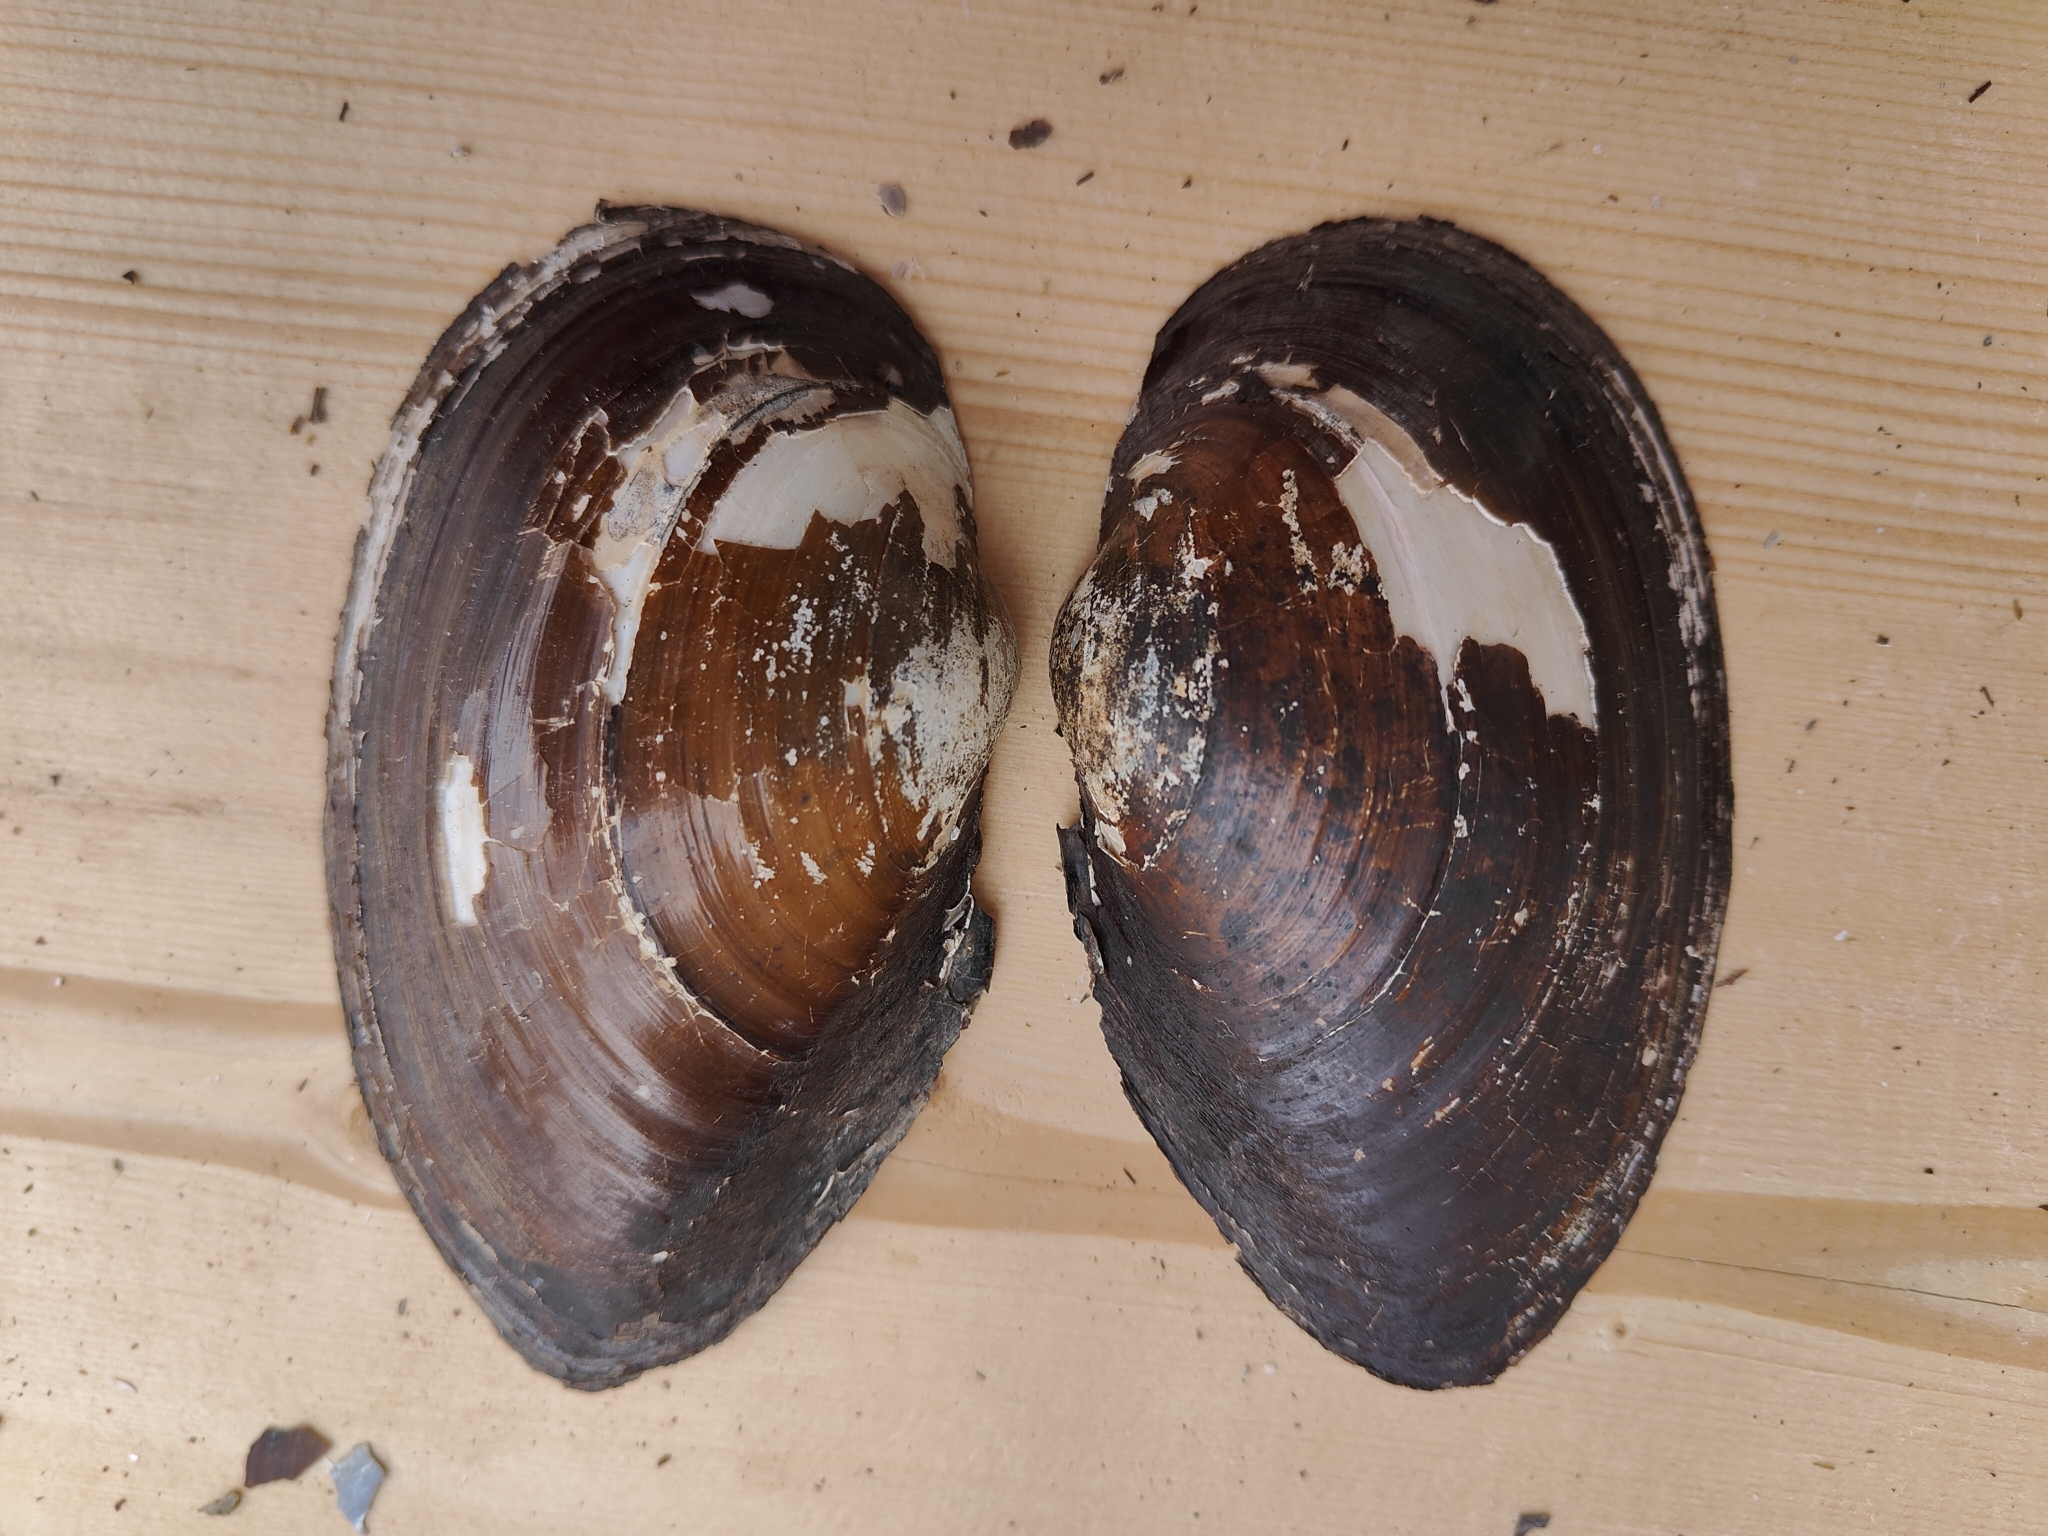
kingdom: Animalia
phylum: Mollusca
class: Bivalvia
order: Unionida
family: Unionidae
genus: Pyganodon
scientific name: Pyganodon grandis
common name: Giant floater
